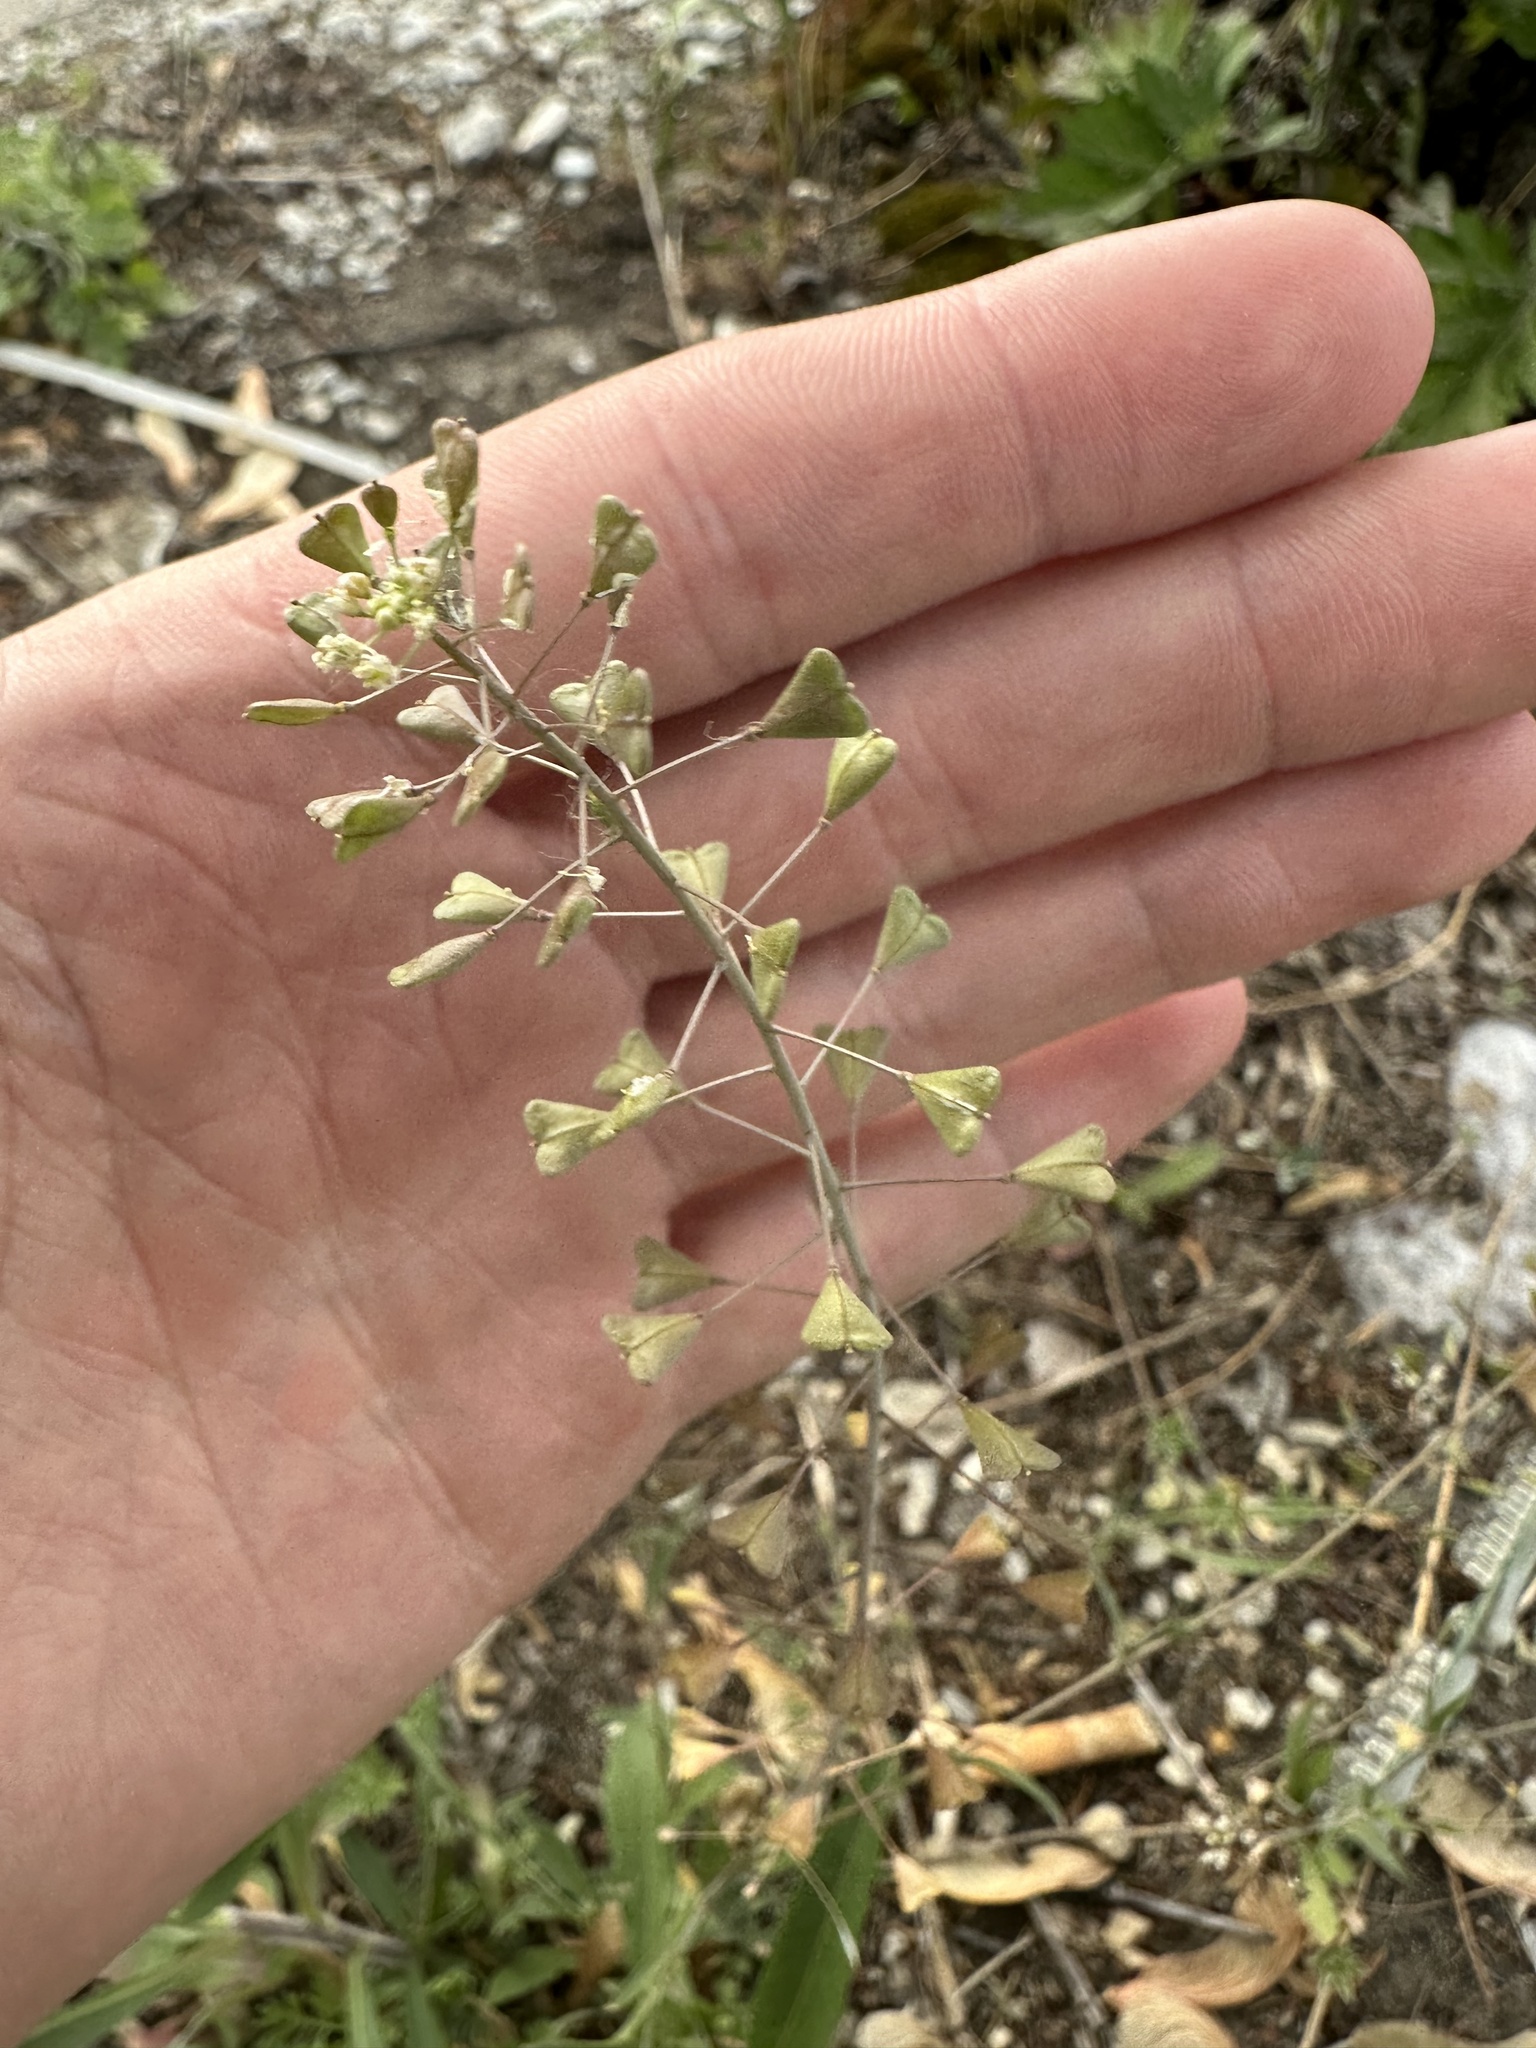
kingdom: Plantae
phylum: Tracheophyta
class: Magnoliopsida
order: Brassicales
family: Brassicaceae
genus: Capsella
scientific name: Capsella bursa-pastoris
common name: Shepherd's purse
